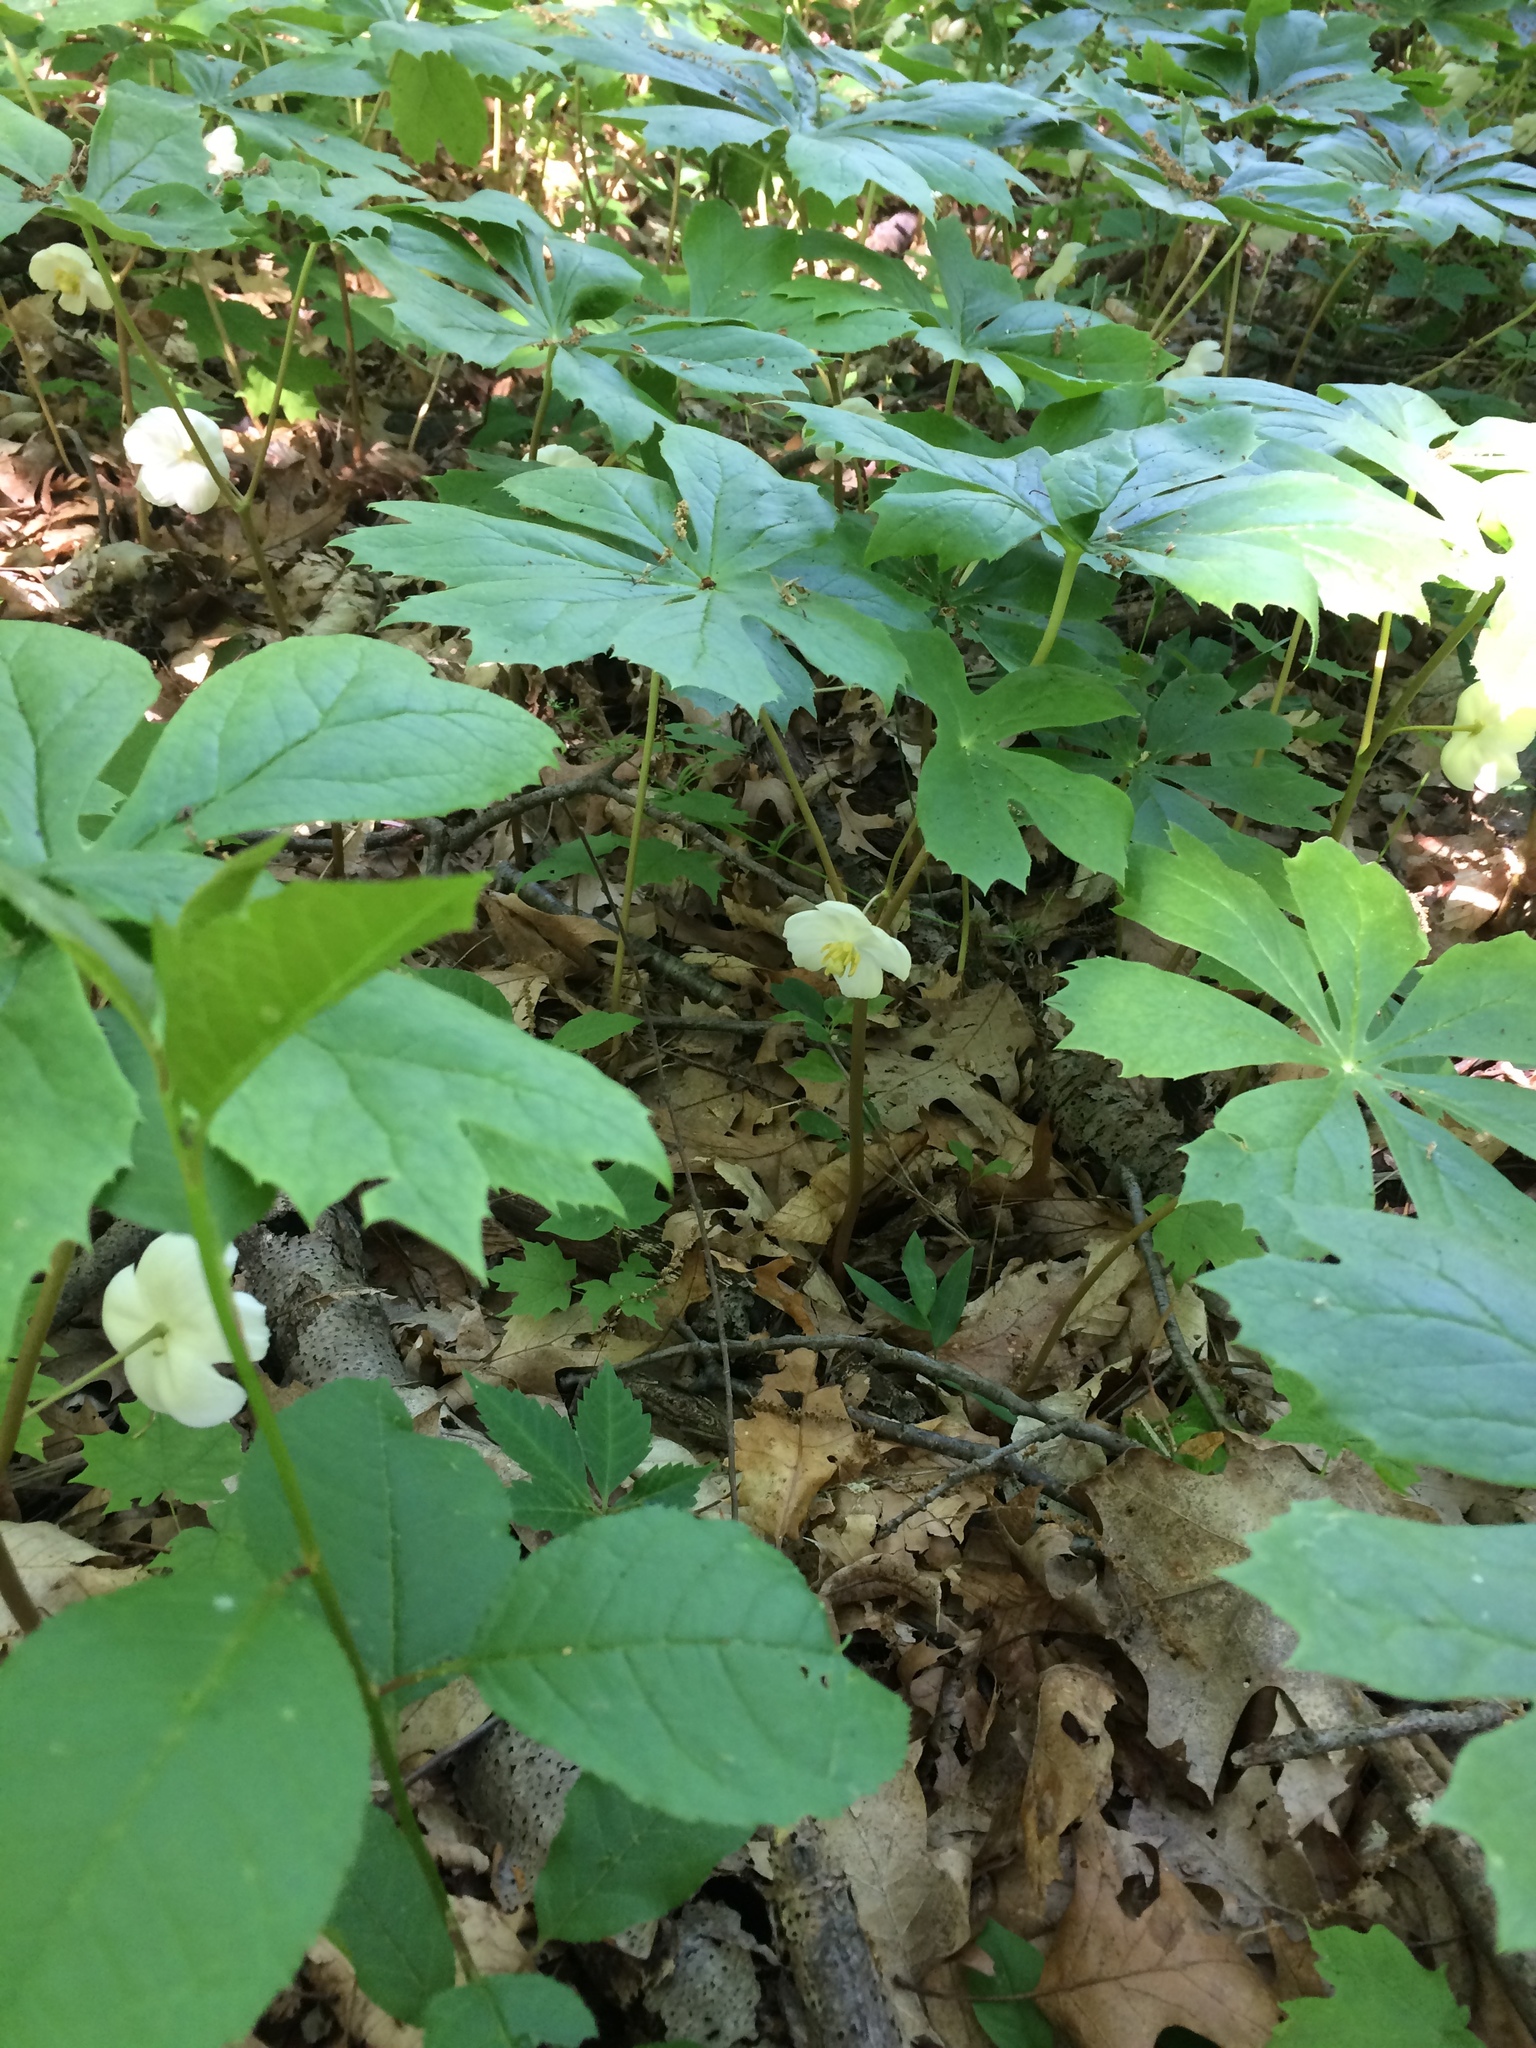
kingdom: Plantae
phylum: Tracheophyta
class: Magnoliopsida
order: Ranunculales
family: Berberidaceae
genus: Podophyllum
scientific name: Podophyllum peltatum
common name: Wild mandrake
